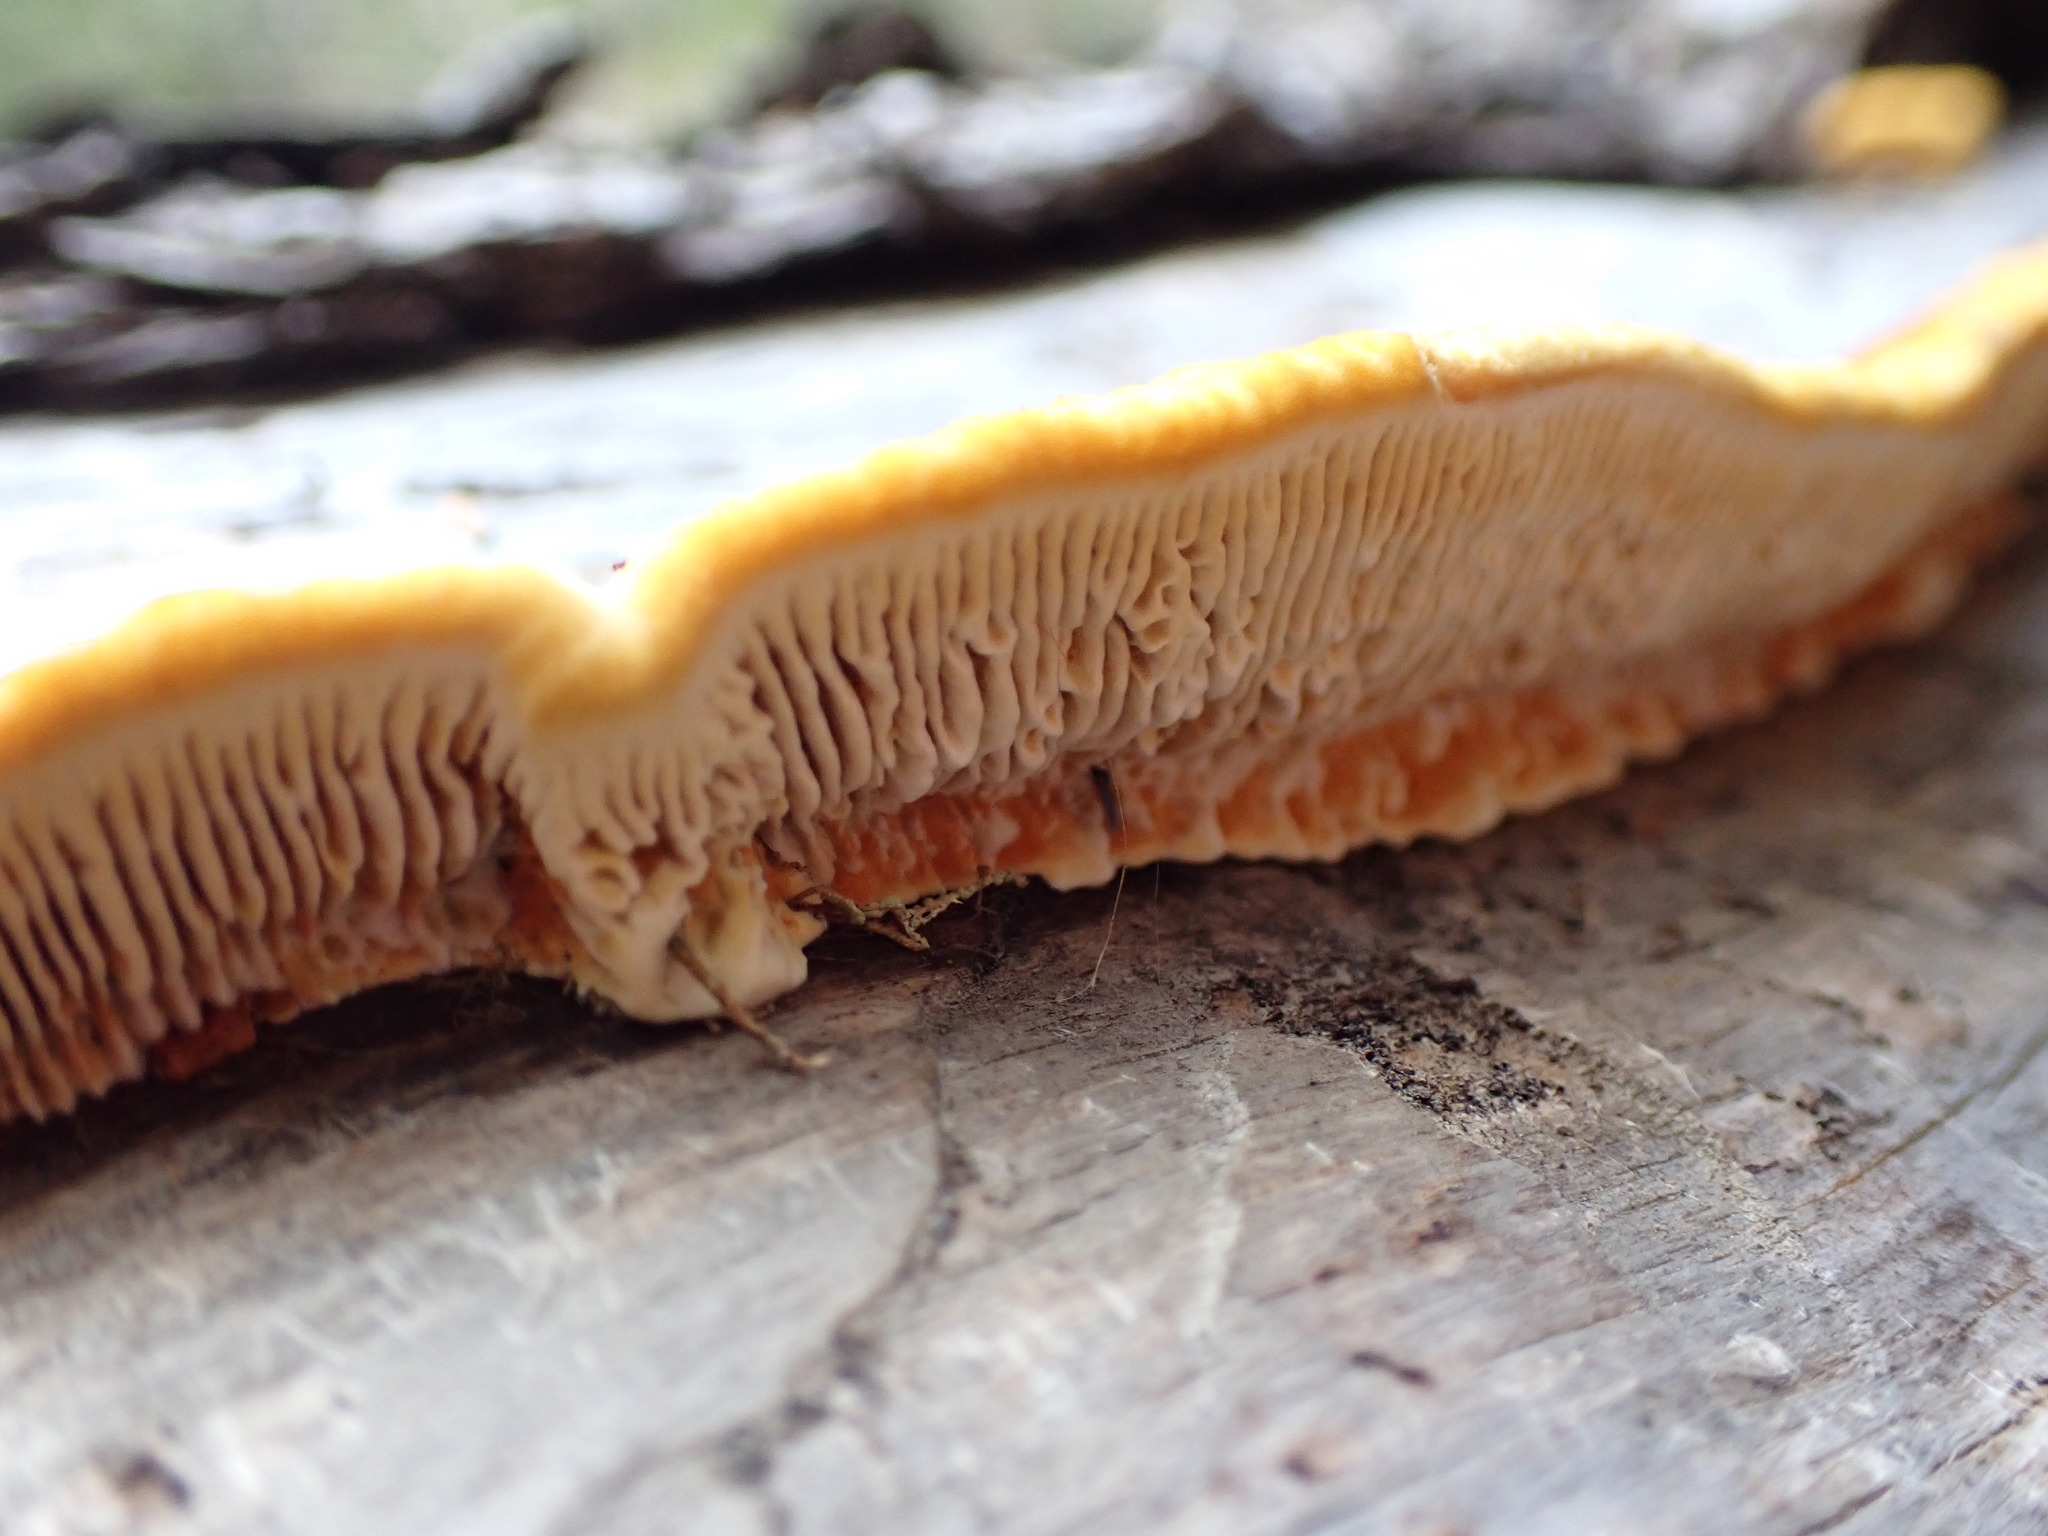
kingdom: Fungi
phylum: Basidiomycota
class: Agaricomycetes
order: Gloeophyllales
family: Gloeophyllaceae
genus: Gloeophyllum
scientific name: Gloeophyllum sepiarium
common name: Conifer mazegill
